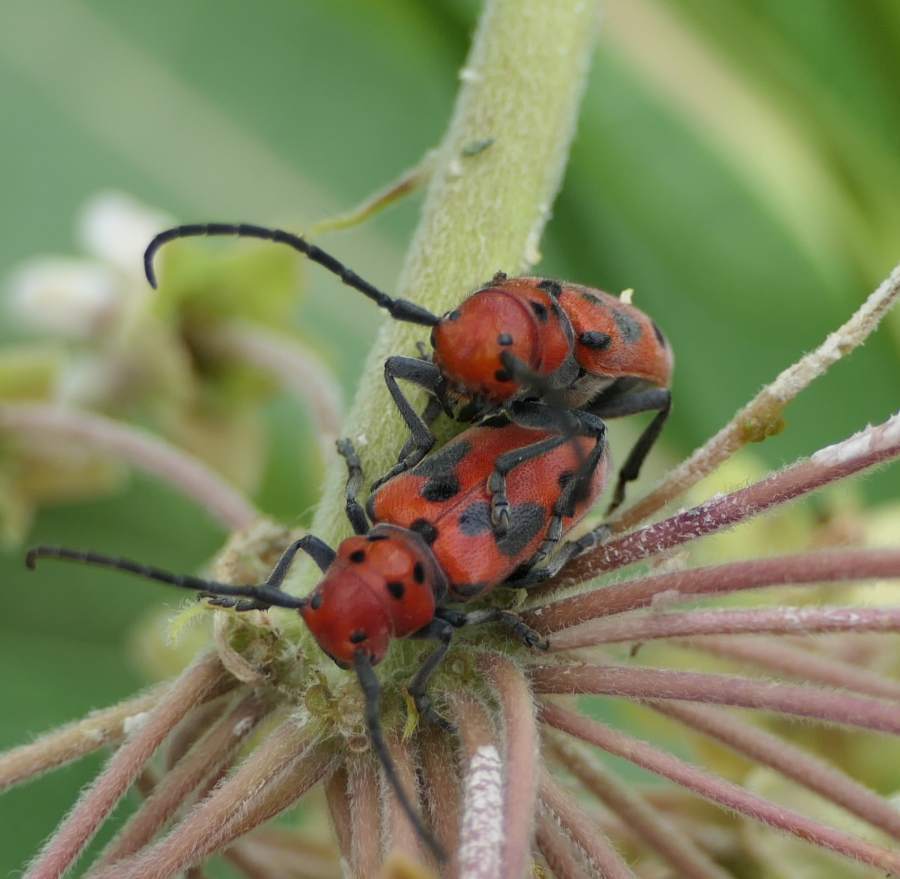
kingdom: Animalia
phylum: Arthropoda
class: Insecta
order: Coleoptera
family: Cerambycidae
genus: Tetraopes
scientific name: Tetraopes tetrophthalmus
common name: Red milkweed beetle
